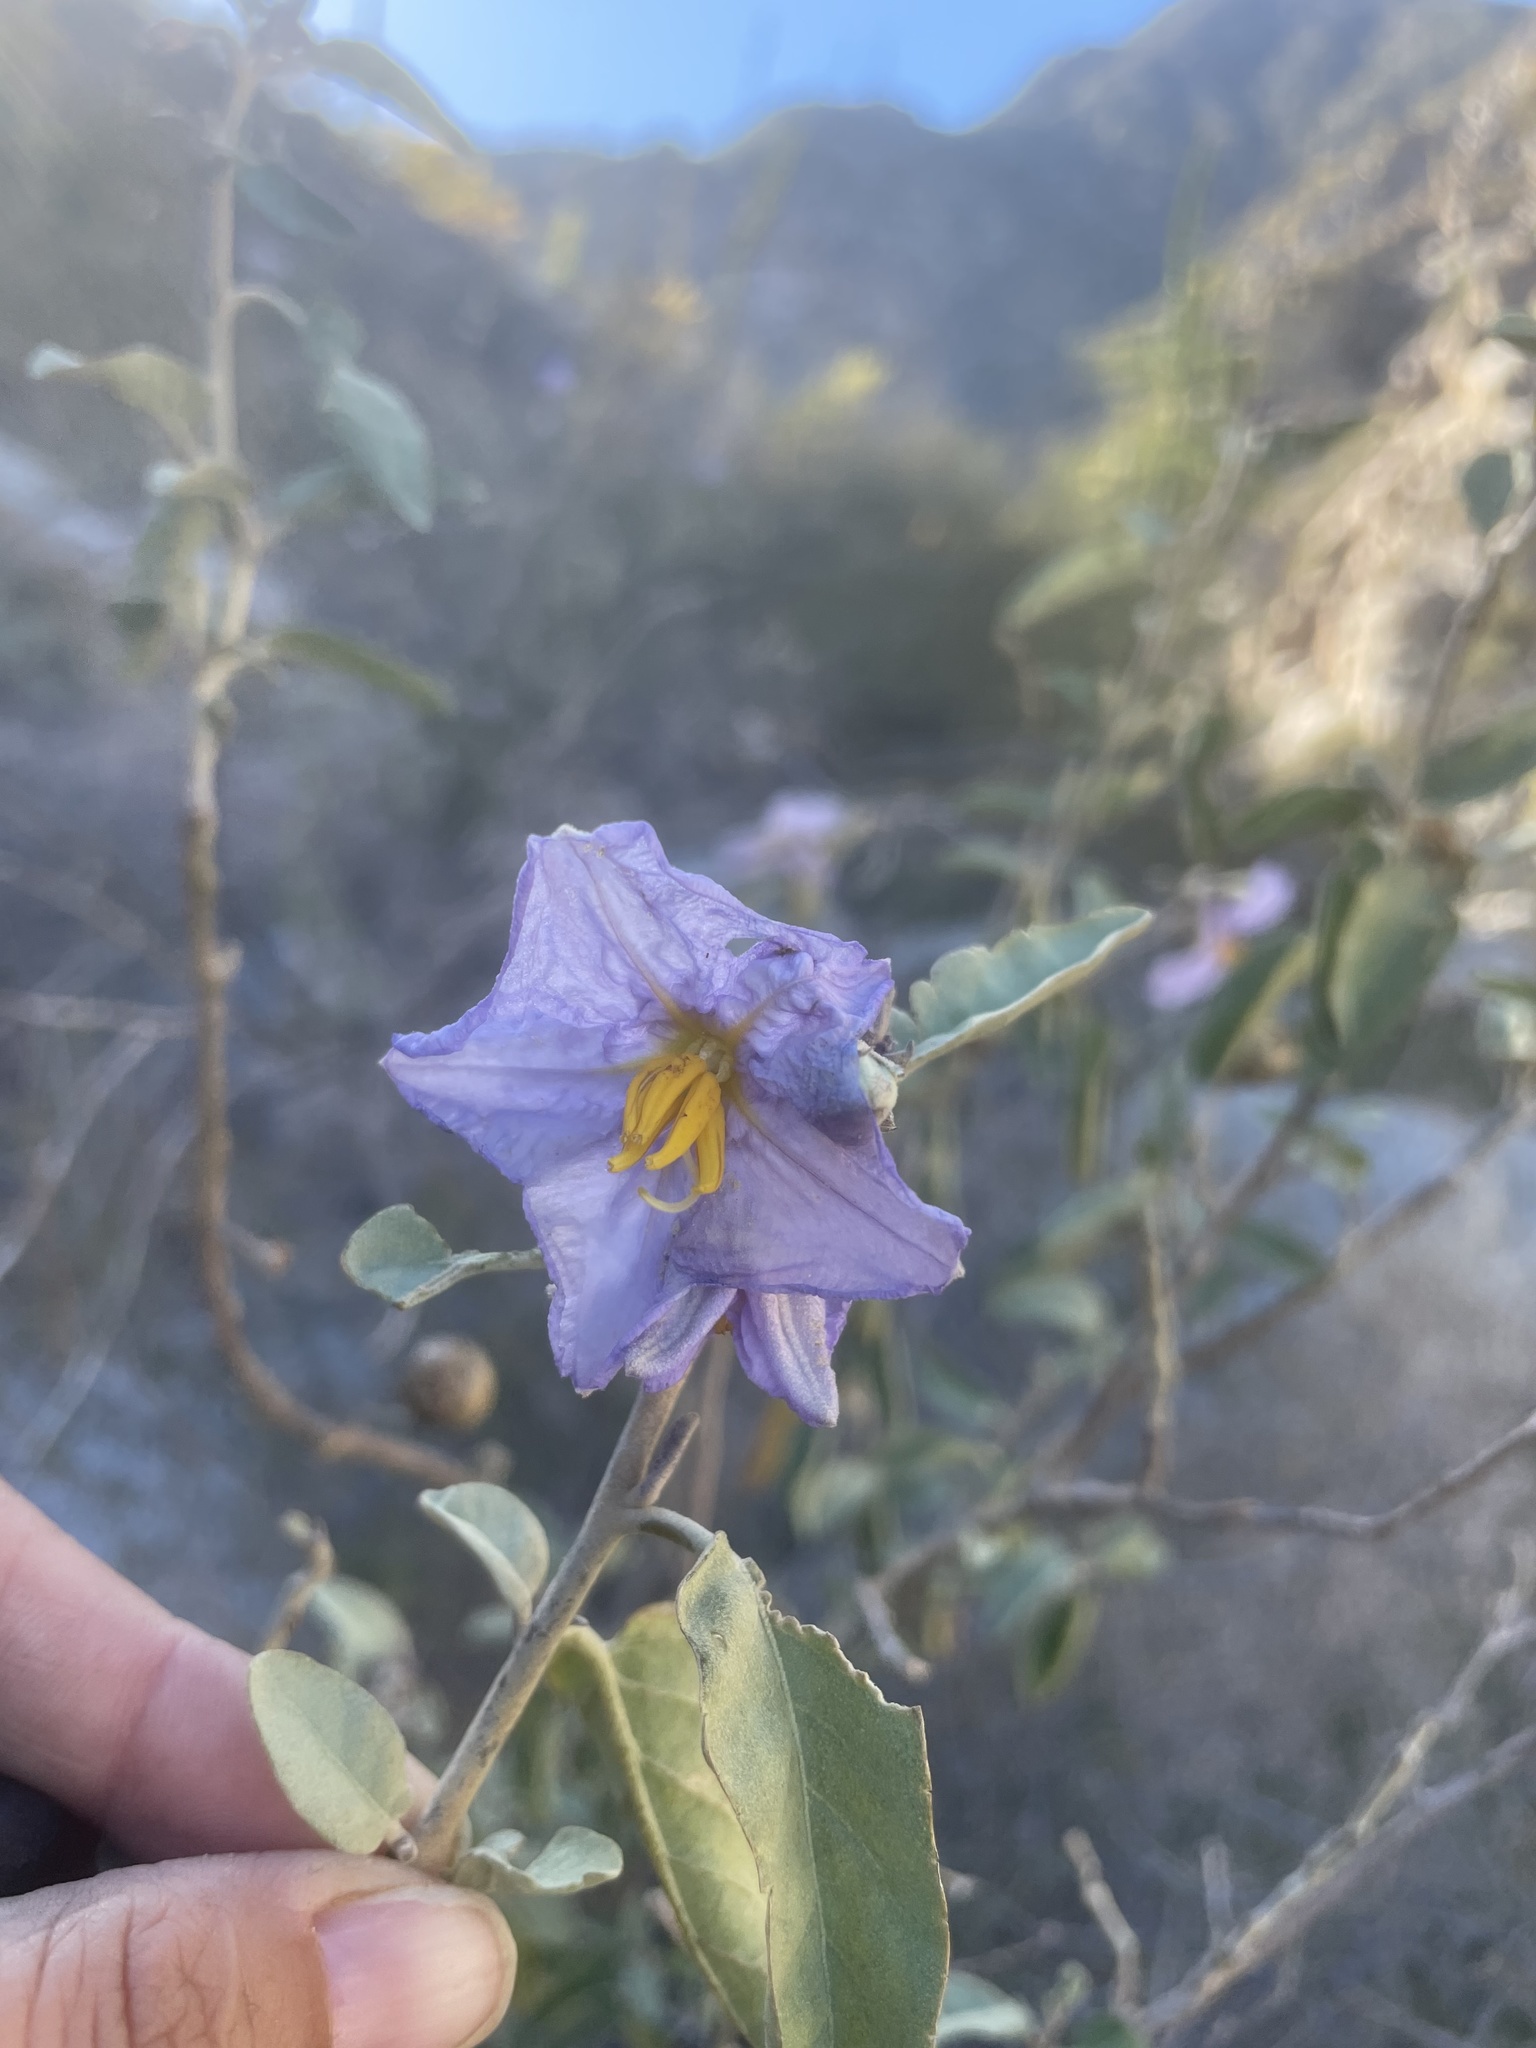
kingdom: Plantae
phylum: Tracheophyta
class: Magnoliopsida
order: Solanales
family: Solanaceae
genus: Solanum
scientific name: Solanum hindsianum
